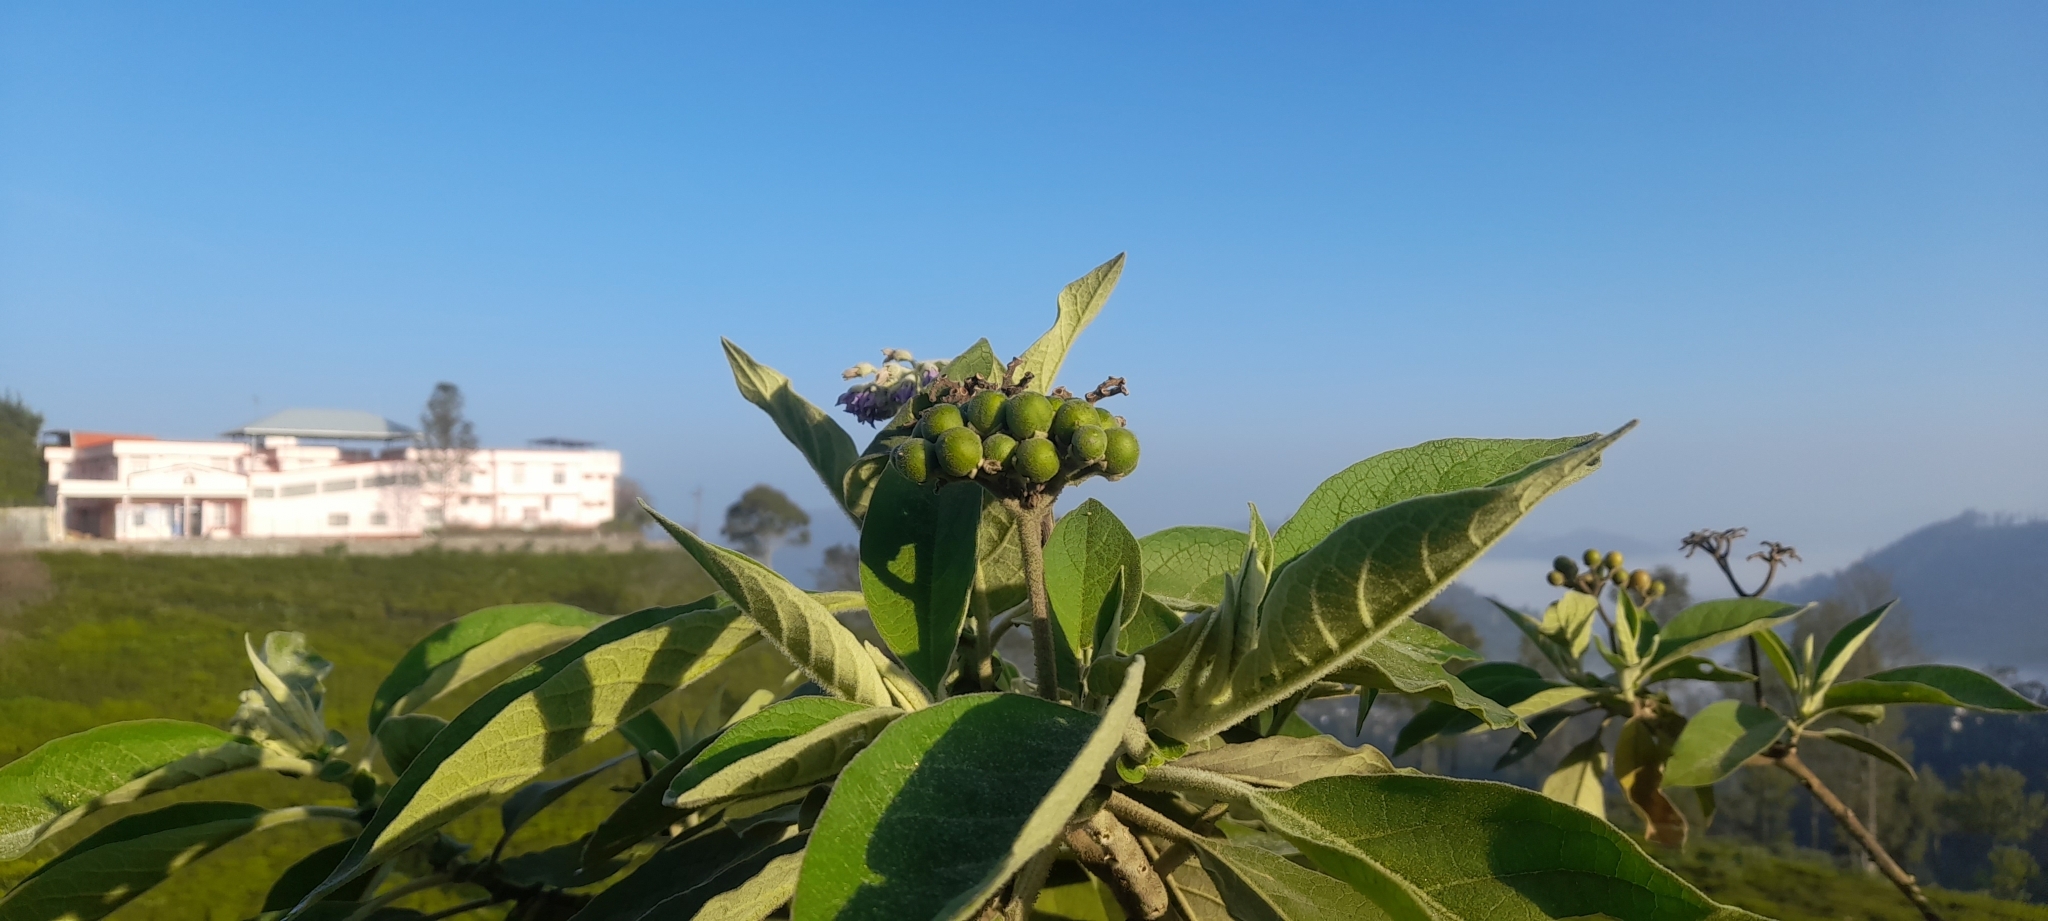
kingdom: Plantae
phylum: Tracheophyta
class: Magnoliopsida
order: Solanales
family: Solanaceae
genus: Solanum
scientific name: Solanum mauritianum
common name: Earleaf nightshade
